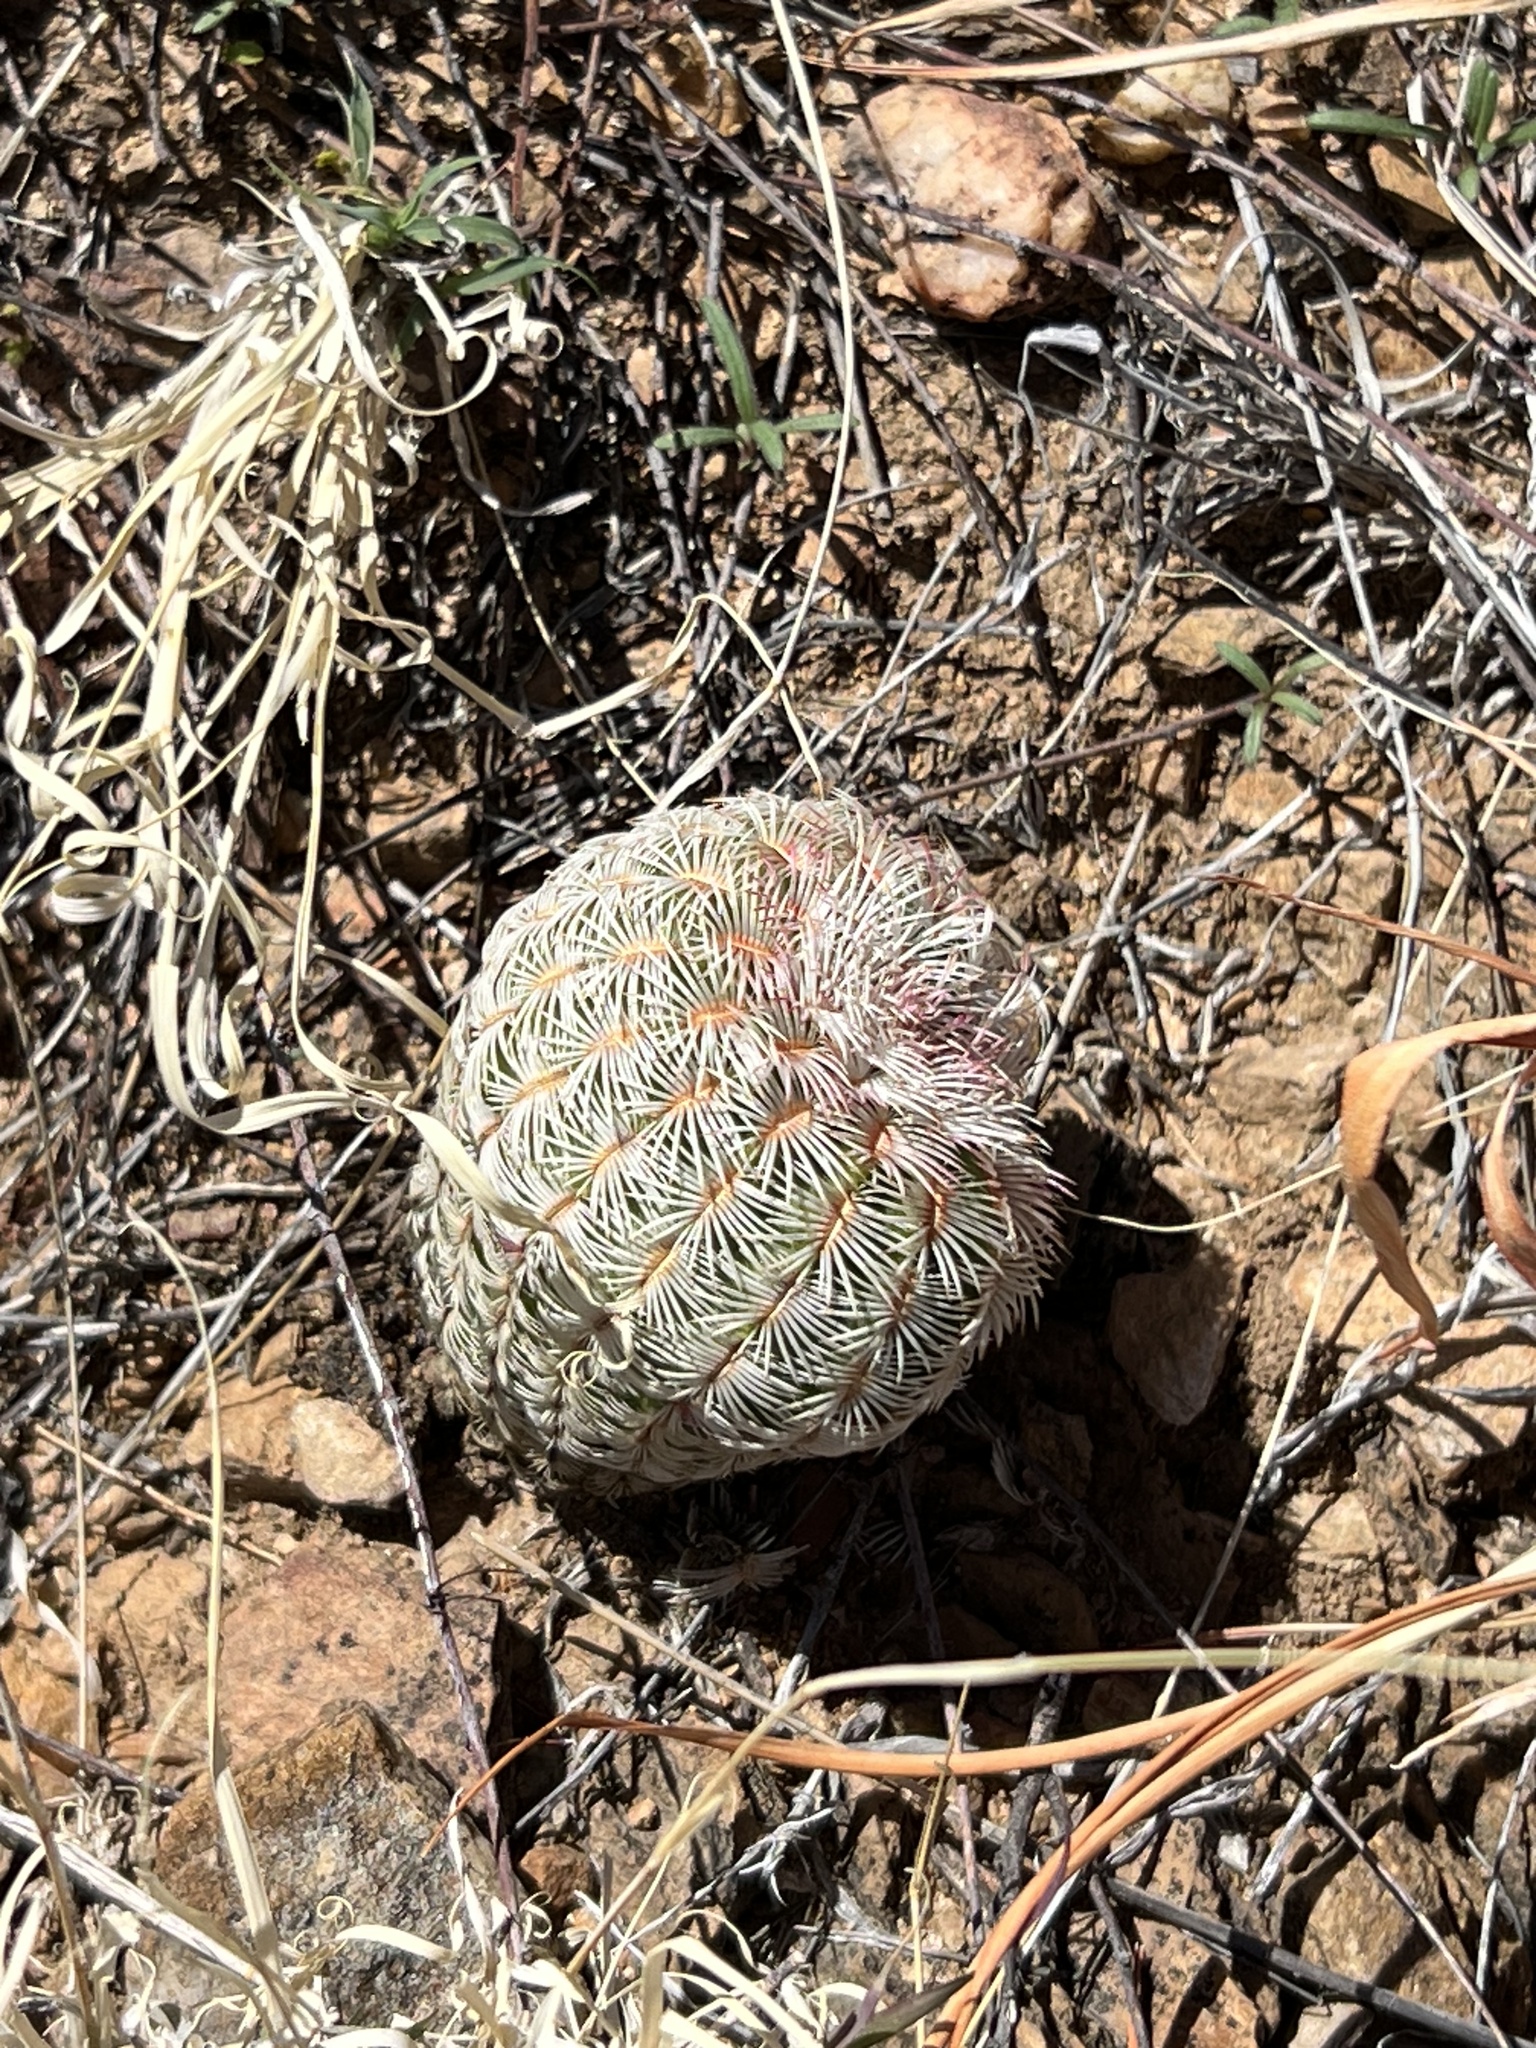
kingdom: Plantae
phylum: Tracheophyta
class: Magnoliopsida
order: Caryophyllales
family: Cactaceae
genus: Echinocereus
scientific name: Echinocereus rigidissimus
